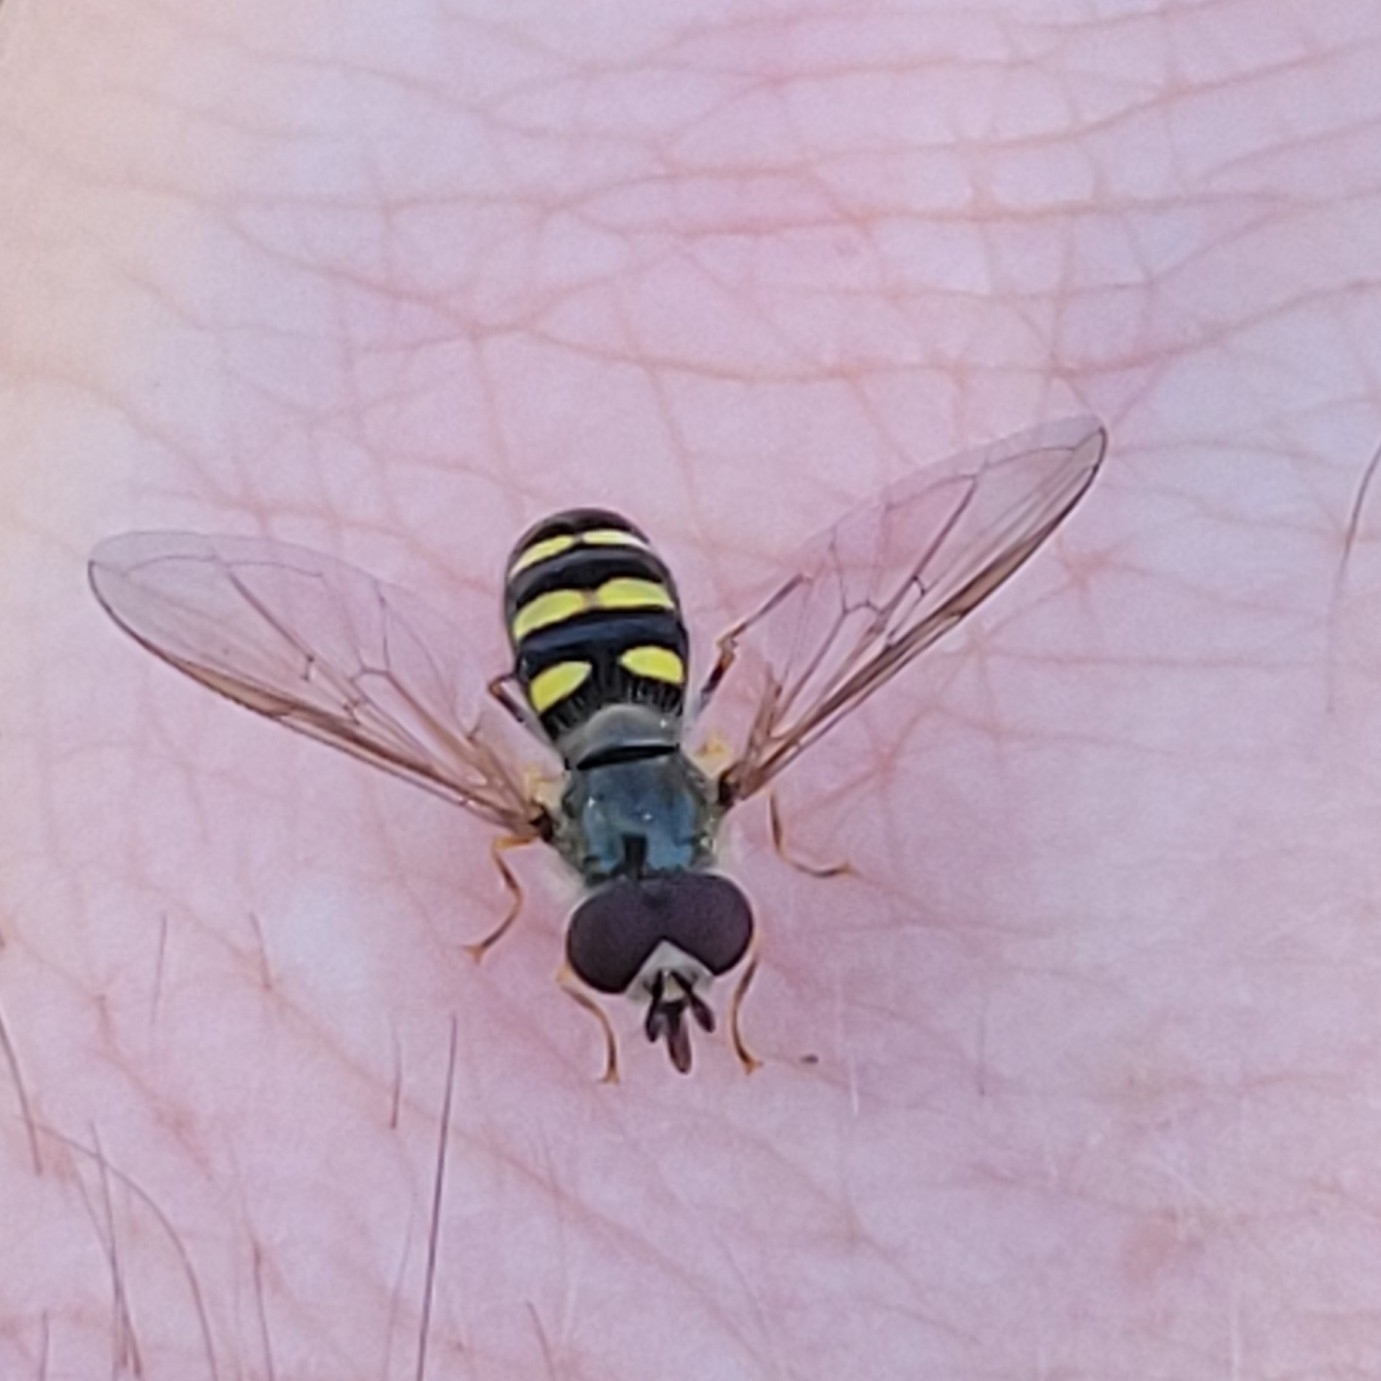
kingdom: Animalia
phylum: Arthropoda
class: Insecta
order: Diptera
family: Syrphidae
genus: Eupeodes
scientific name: Eupeodes
